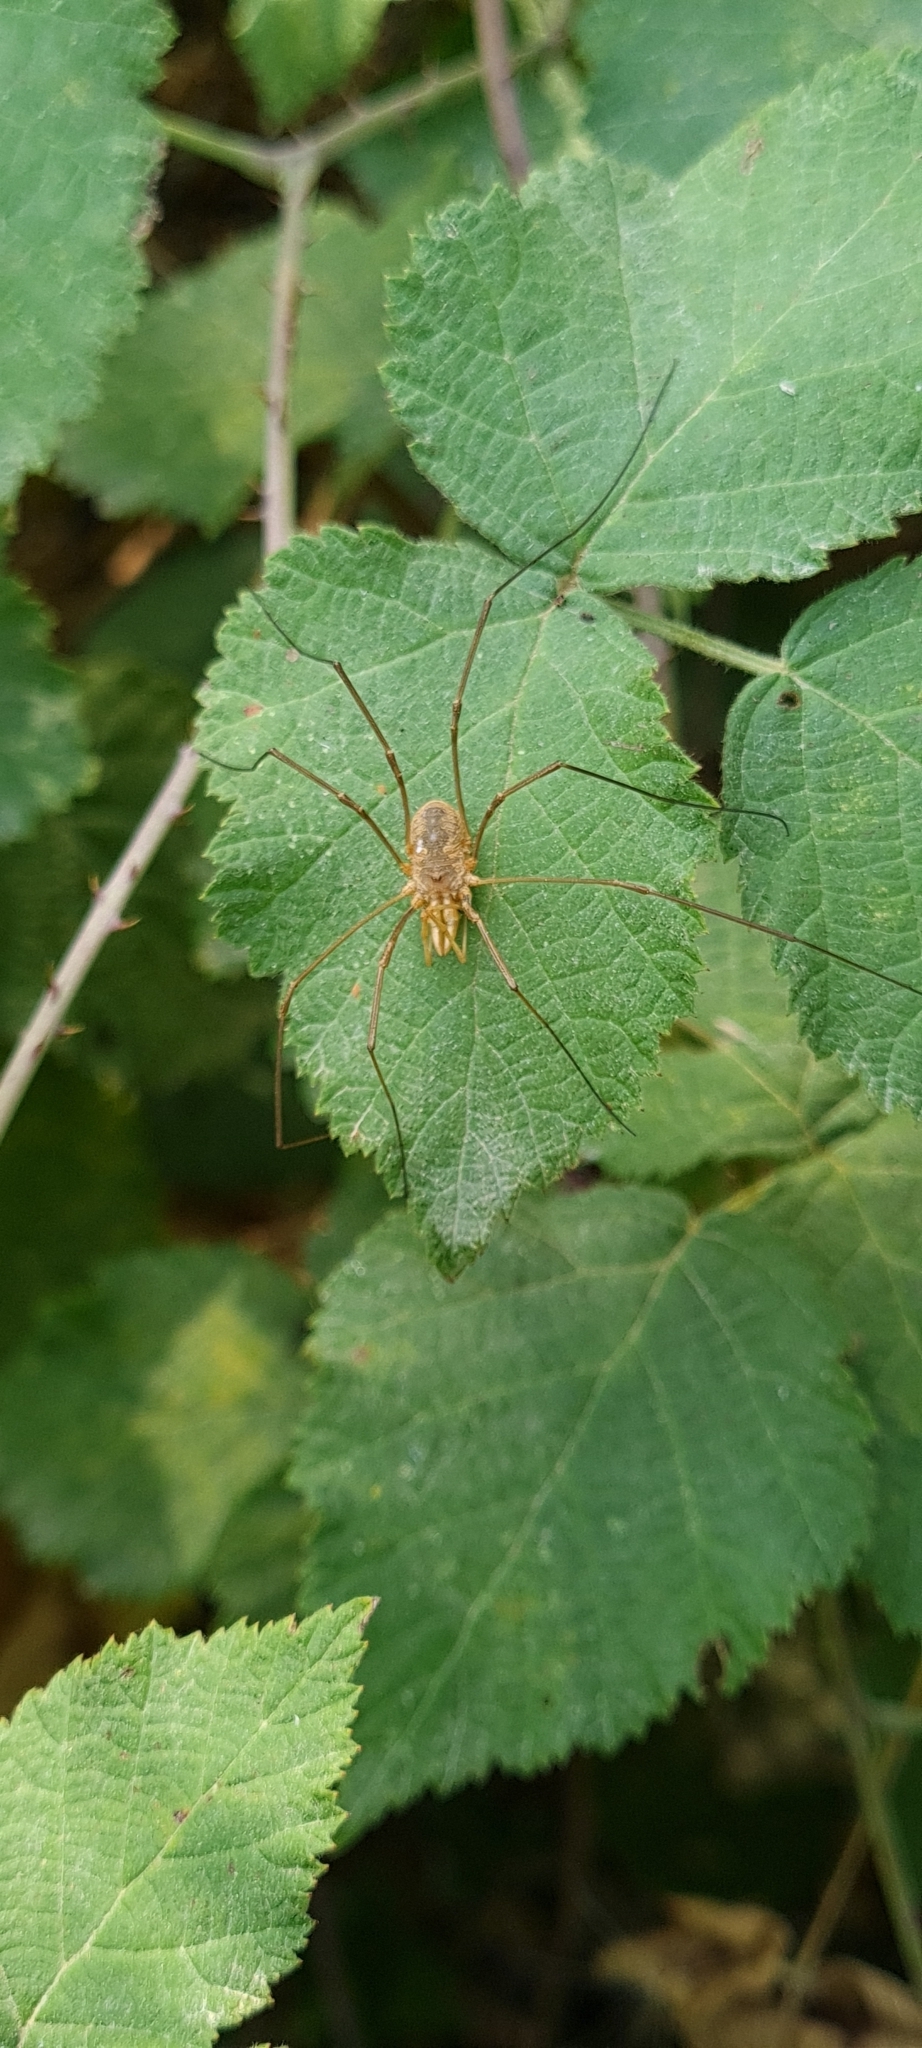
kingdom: Animalia
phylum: Arthropoda
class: Arachnida
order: Opiliones
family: Phalangiidae
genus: Phalangium
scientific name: Phalangium opilio
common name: Daddy longleg
